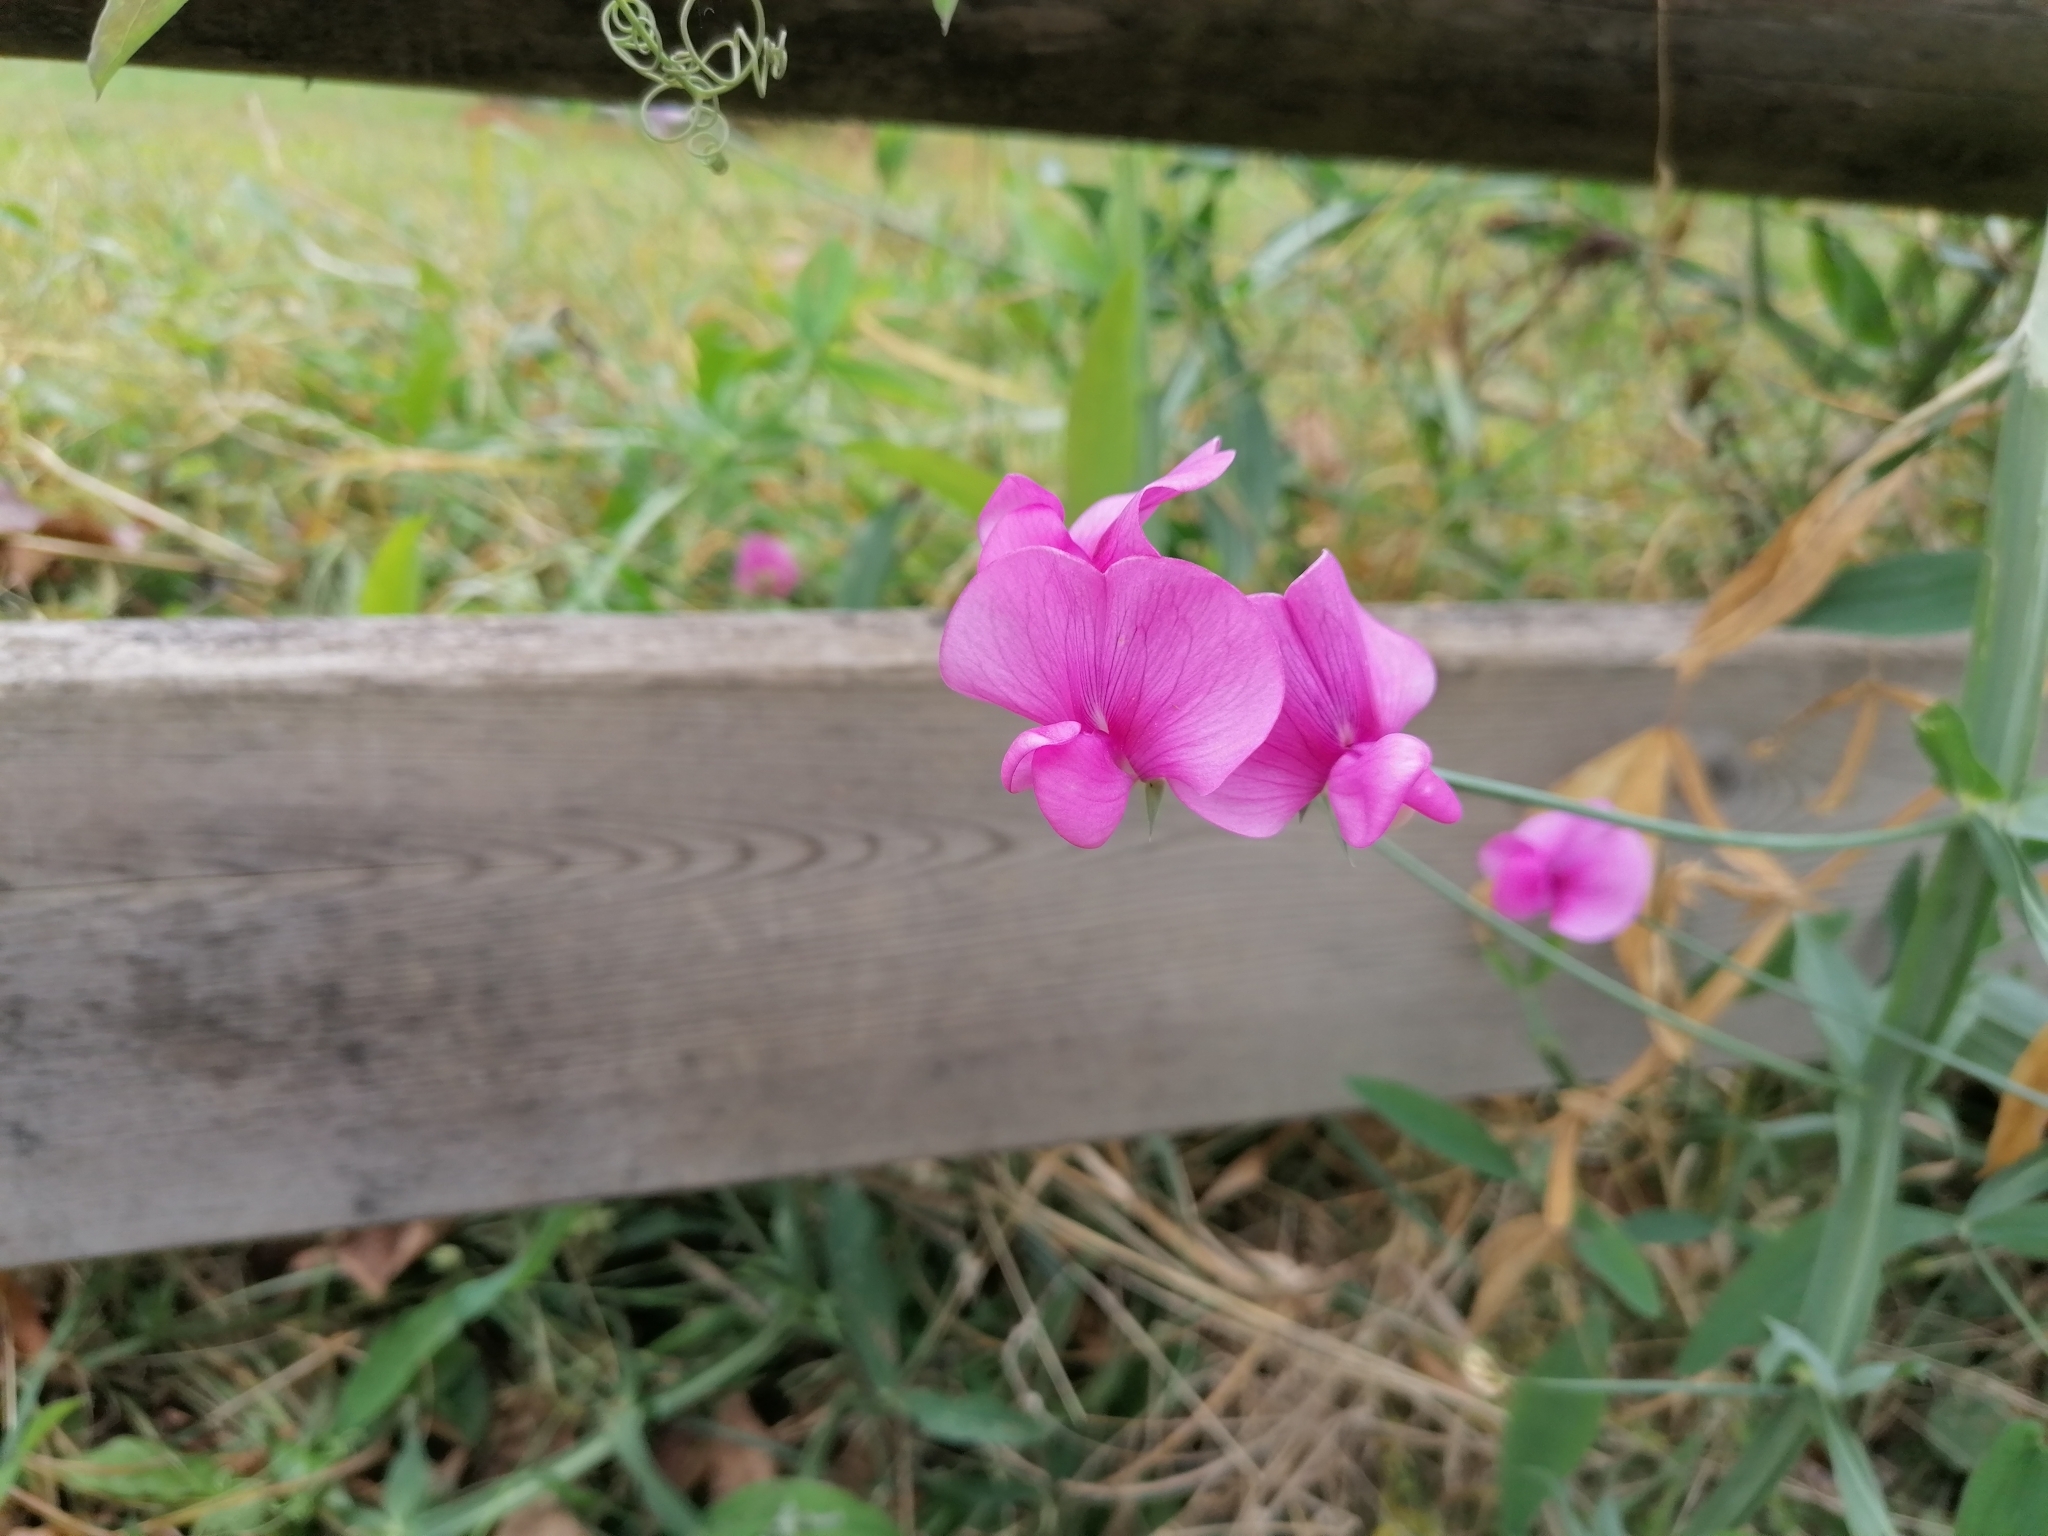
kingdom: Plantae
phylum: Tracheophyta
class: Magnoliopsida
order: Fabales
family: Fabaceae
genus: Lathyrus
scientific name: Lathyrus latifolius
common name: Perennial pea
